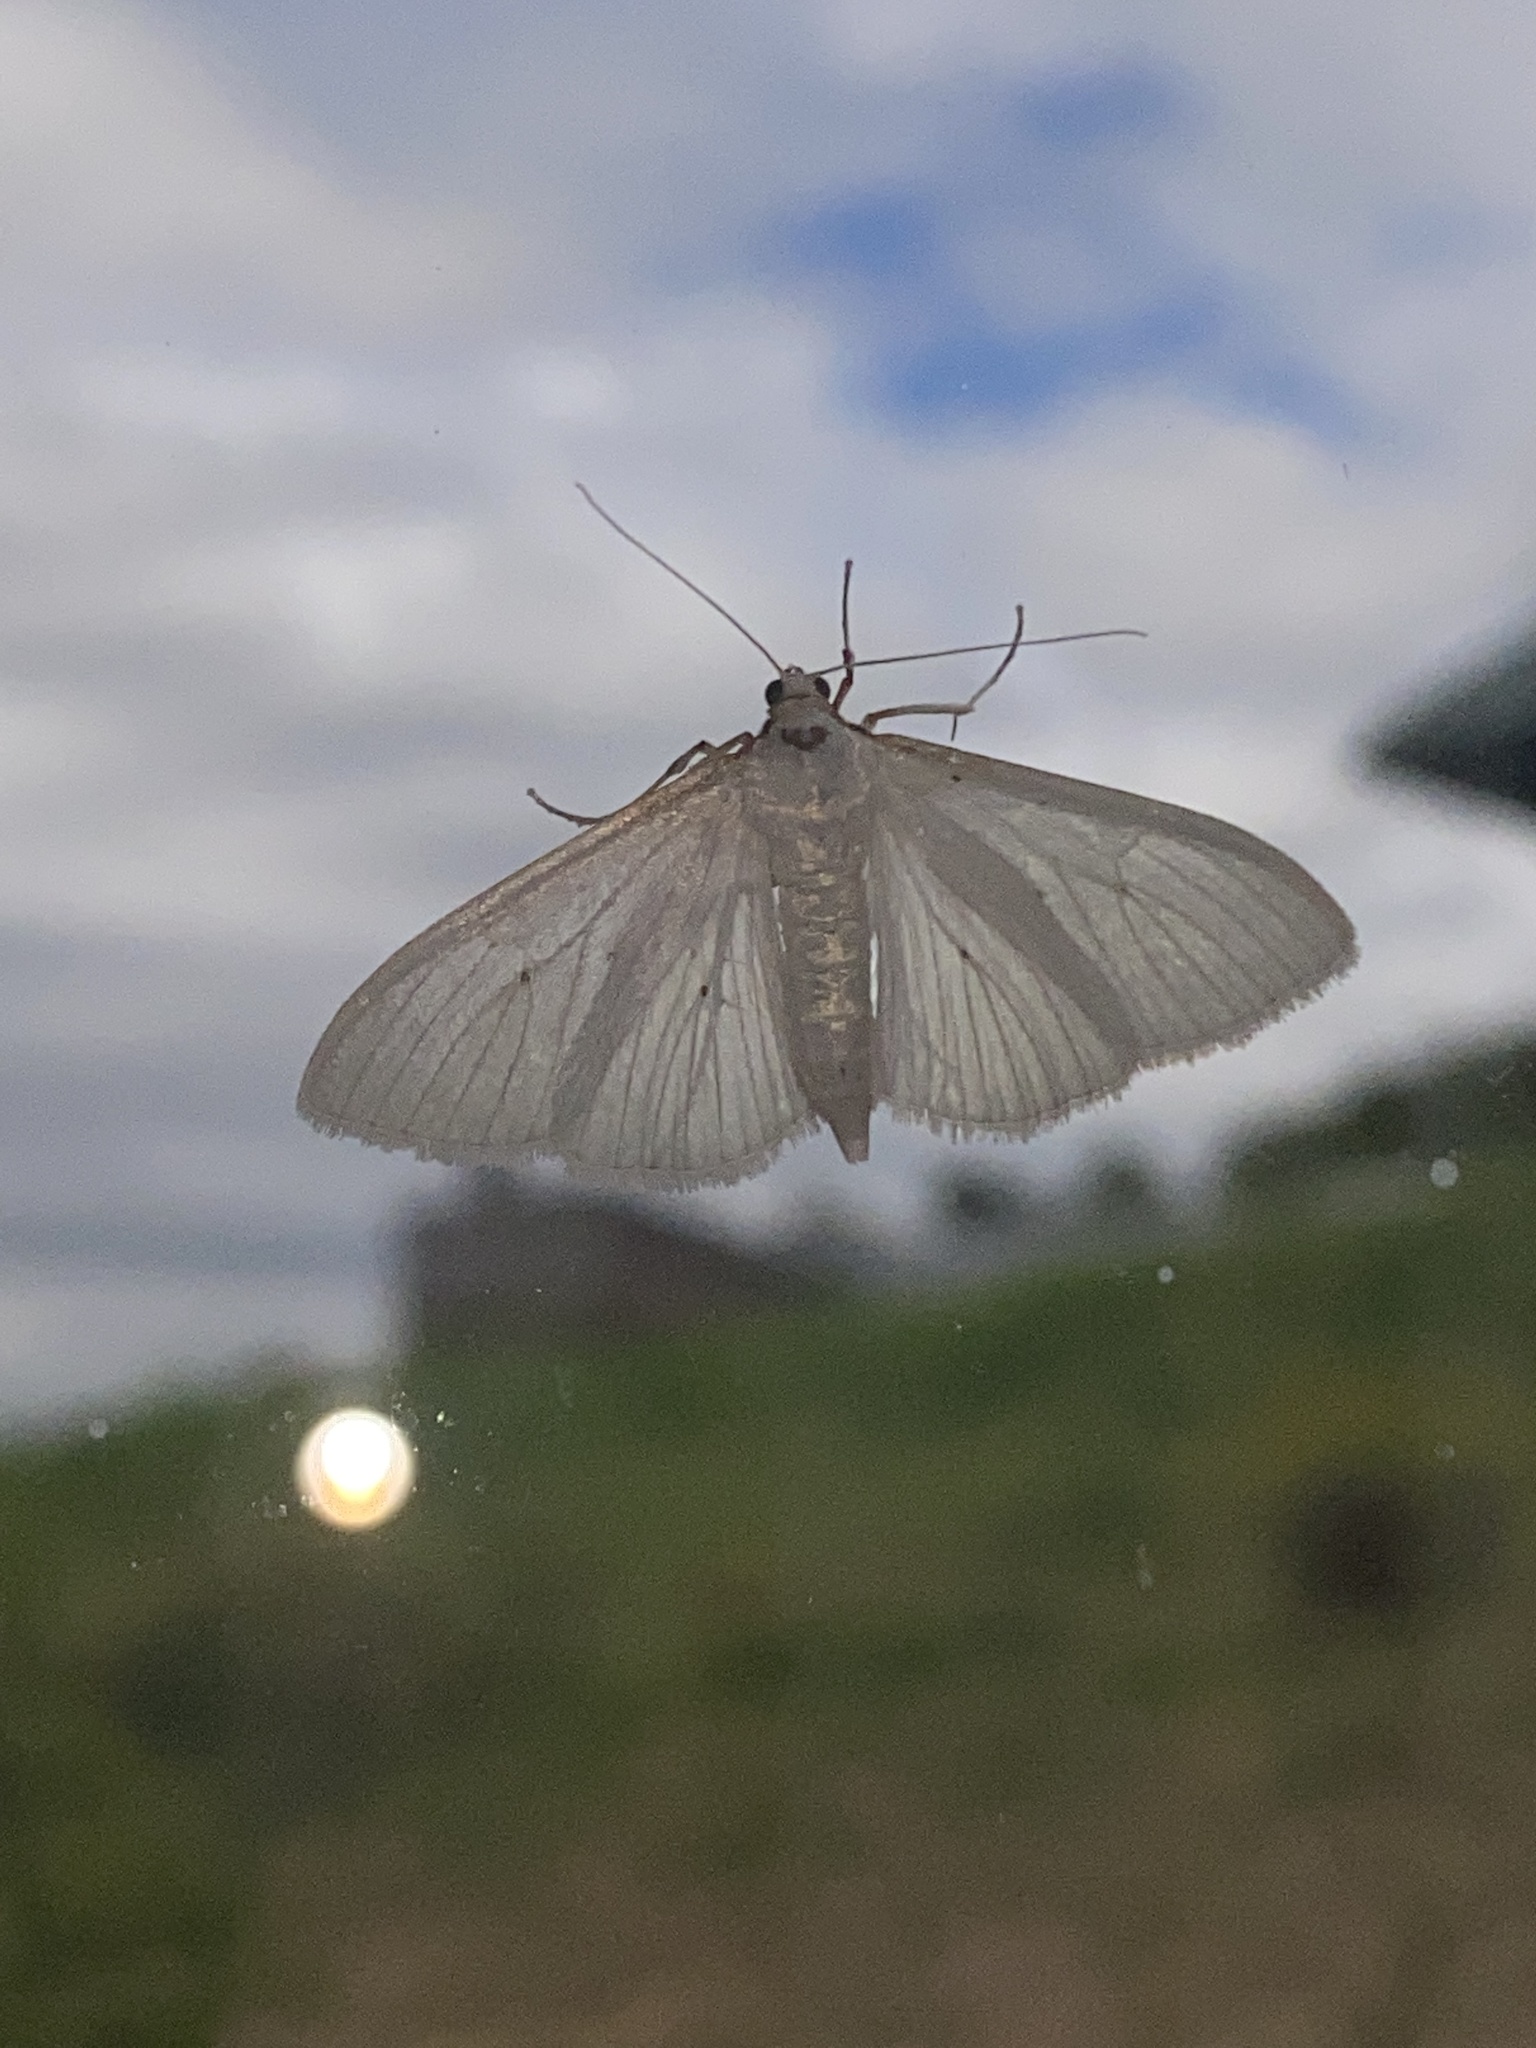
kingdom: Animalia
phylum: Arthropoda
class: Insecta
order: Lepidoptera
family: Crambidae
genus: Palpita
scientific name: Palpita vitrealis
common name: Olive-tree pearl
